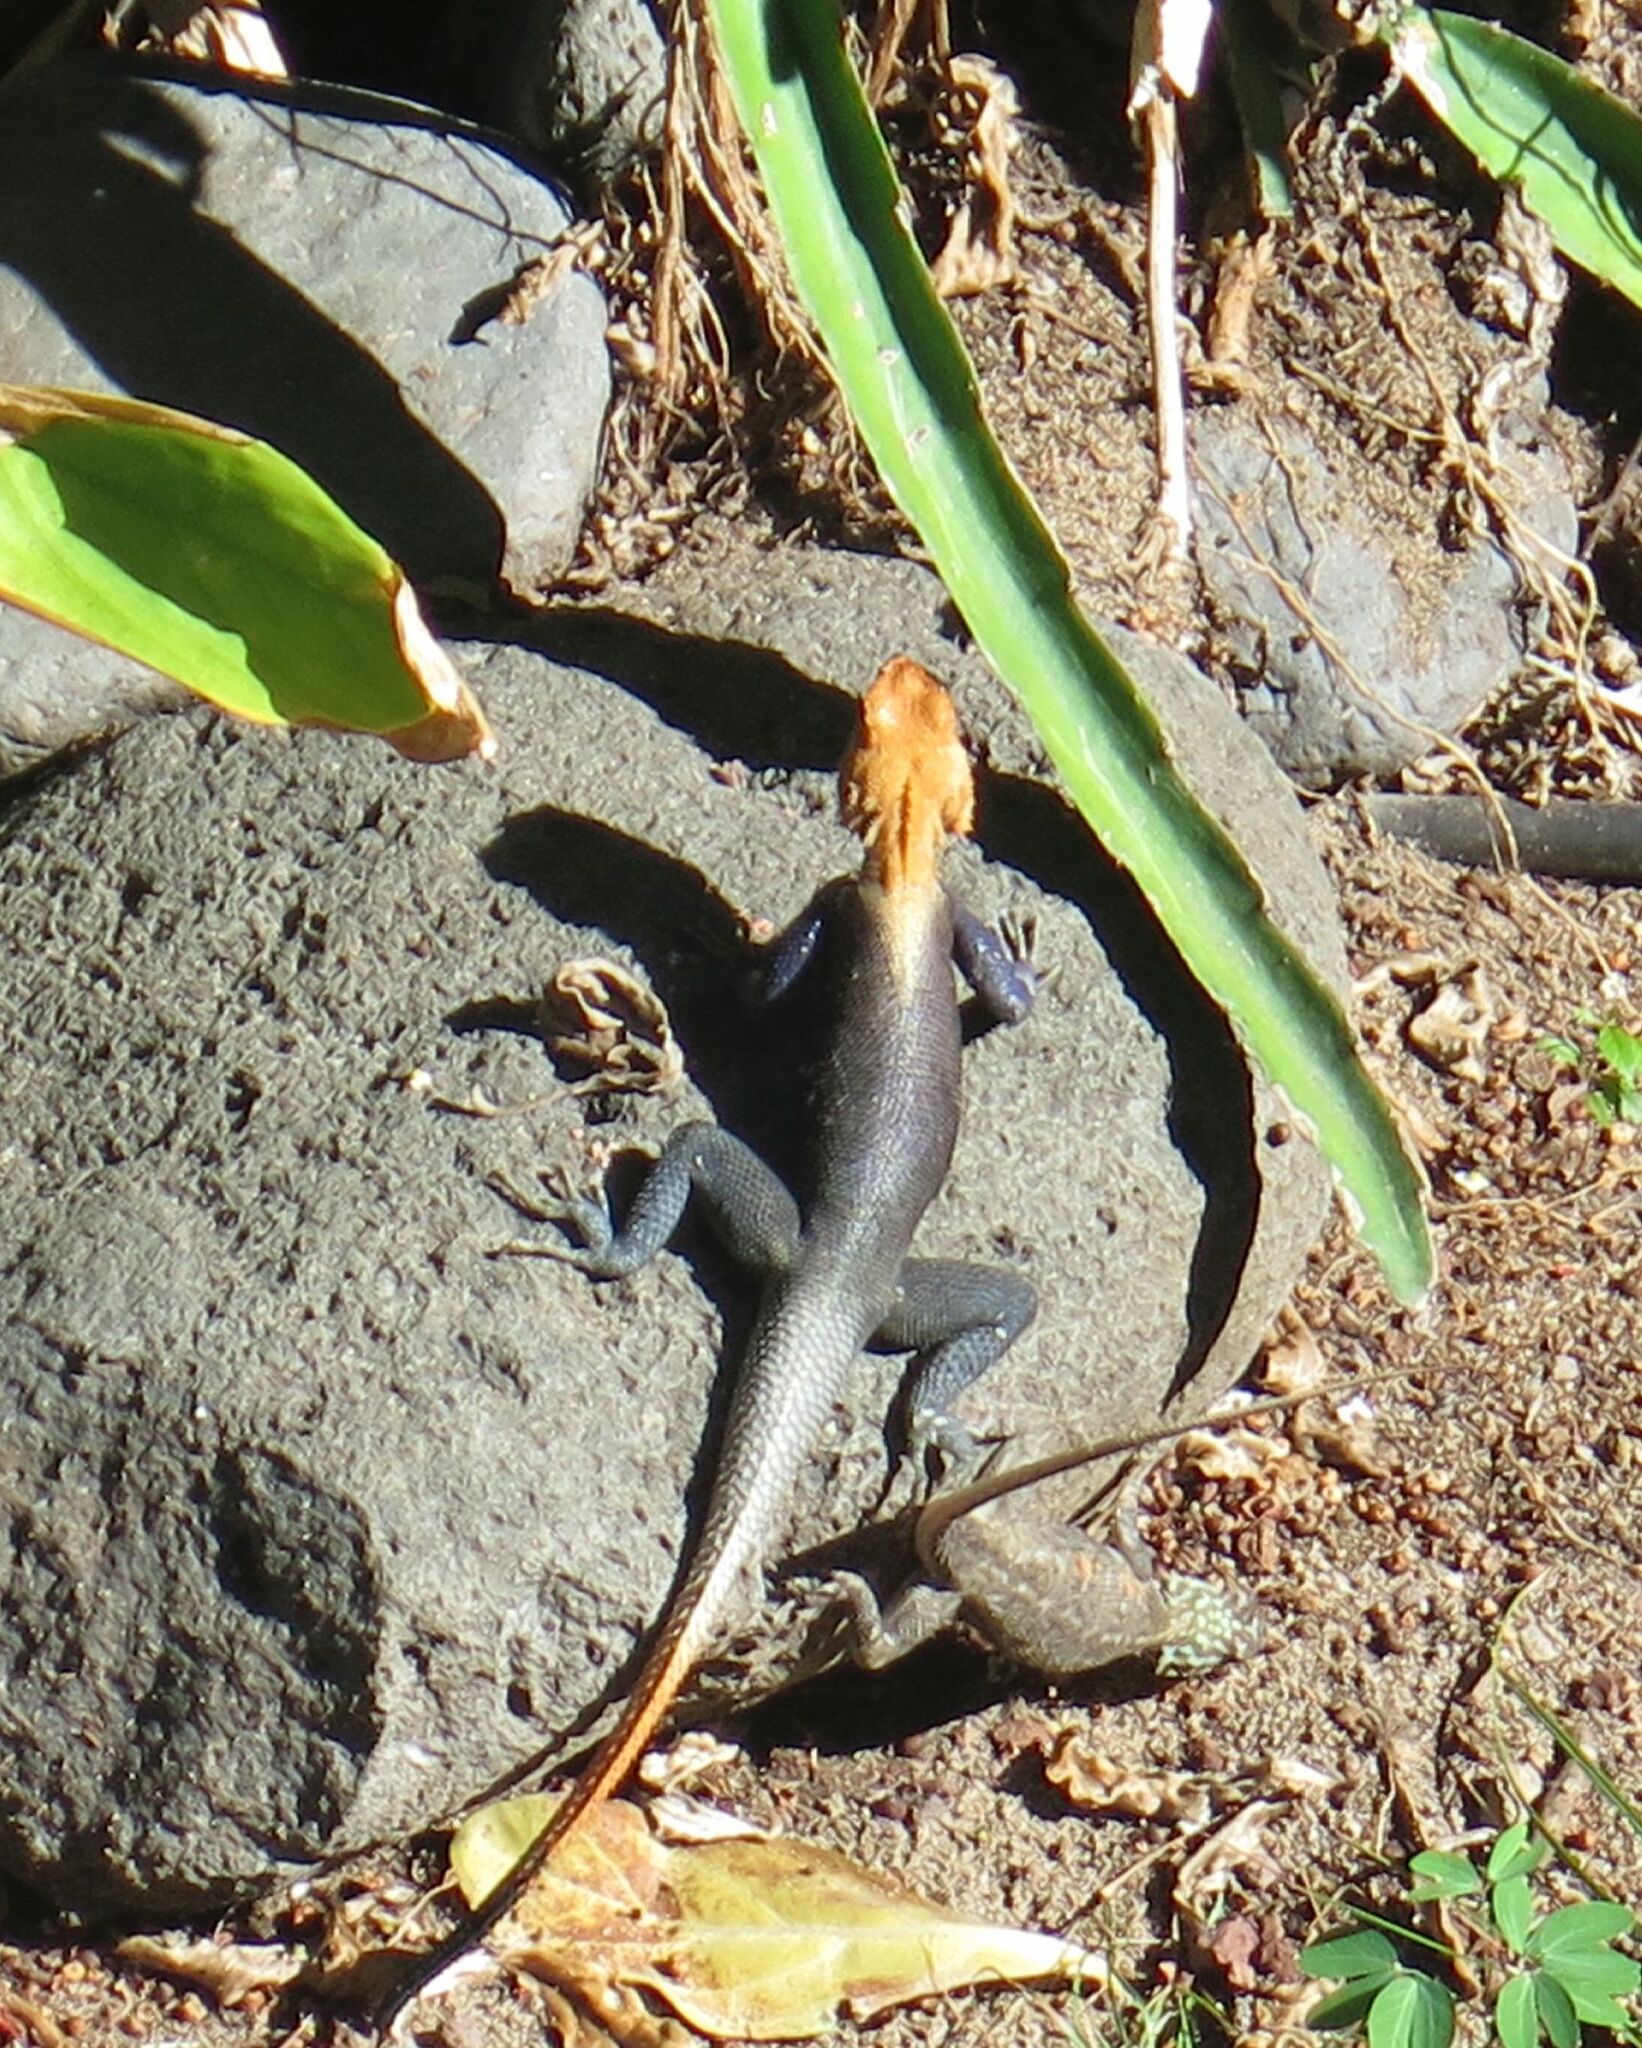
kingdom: Animalia
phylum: Chordata
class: Squamata
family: Agamidae
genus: Agama
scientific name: Agama agama
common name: Common agama
